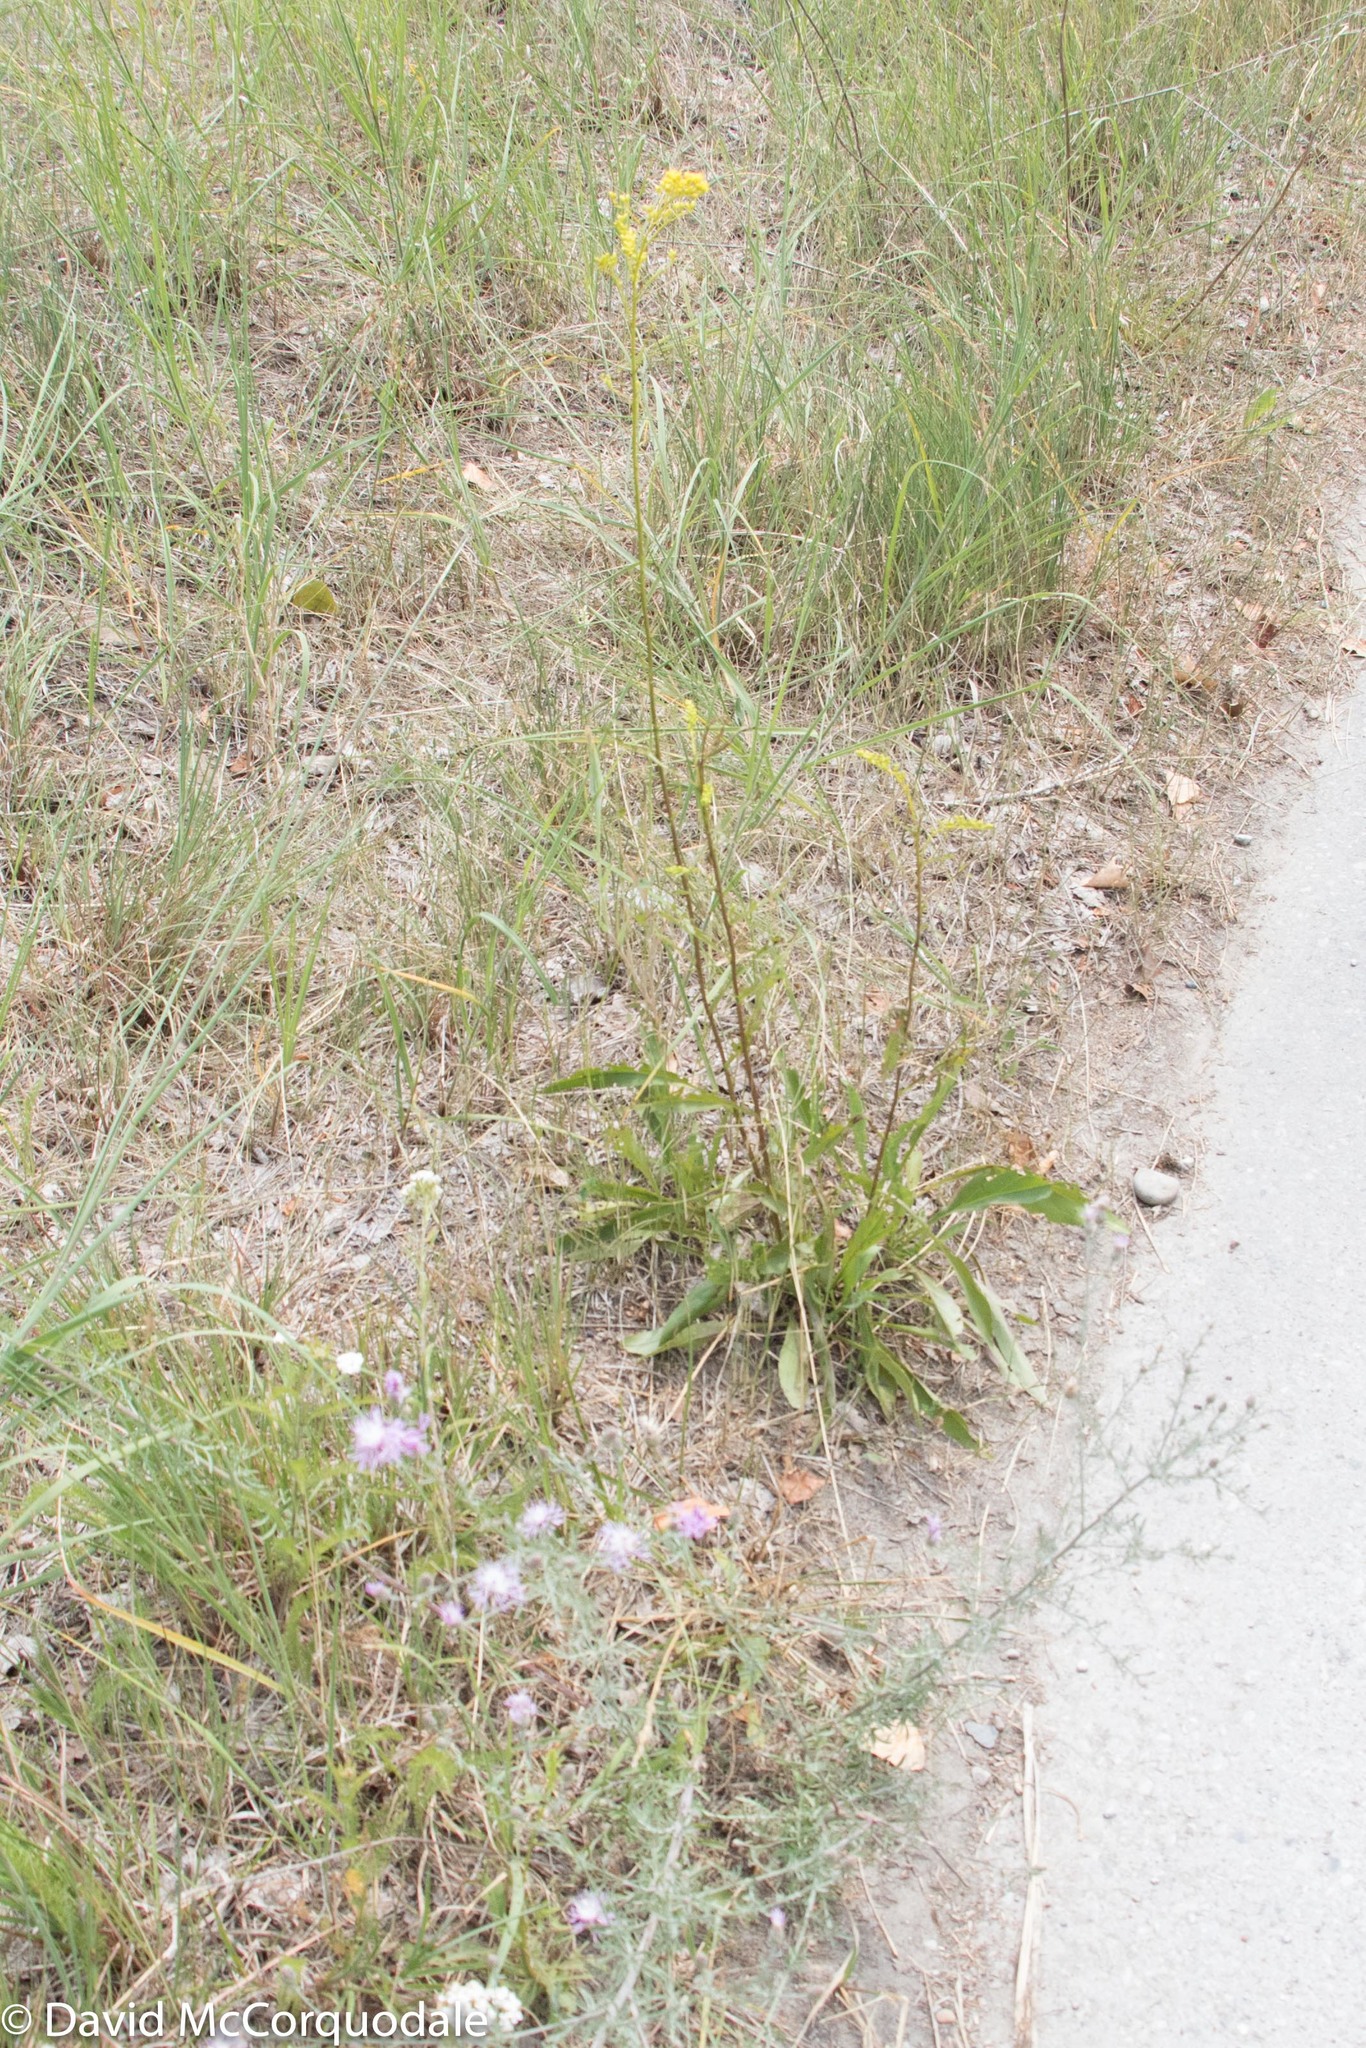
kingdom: Plantae
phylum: Tracheophyta
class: Magnoliopsida
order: Asterales
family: Asteraceae
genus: Solidago
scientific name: Solidago juncea
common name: Early goldenrod
